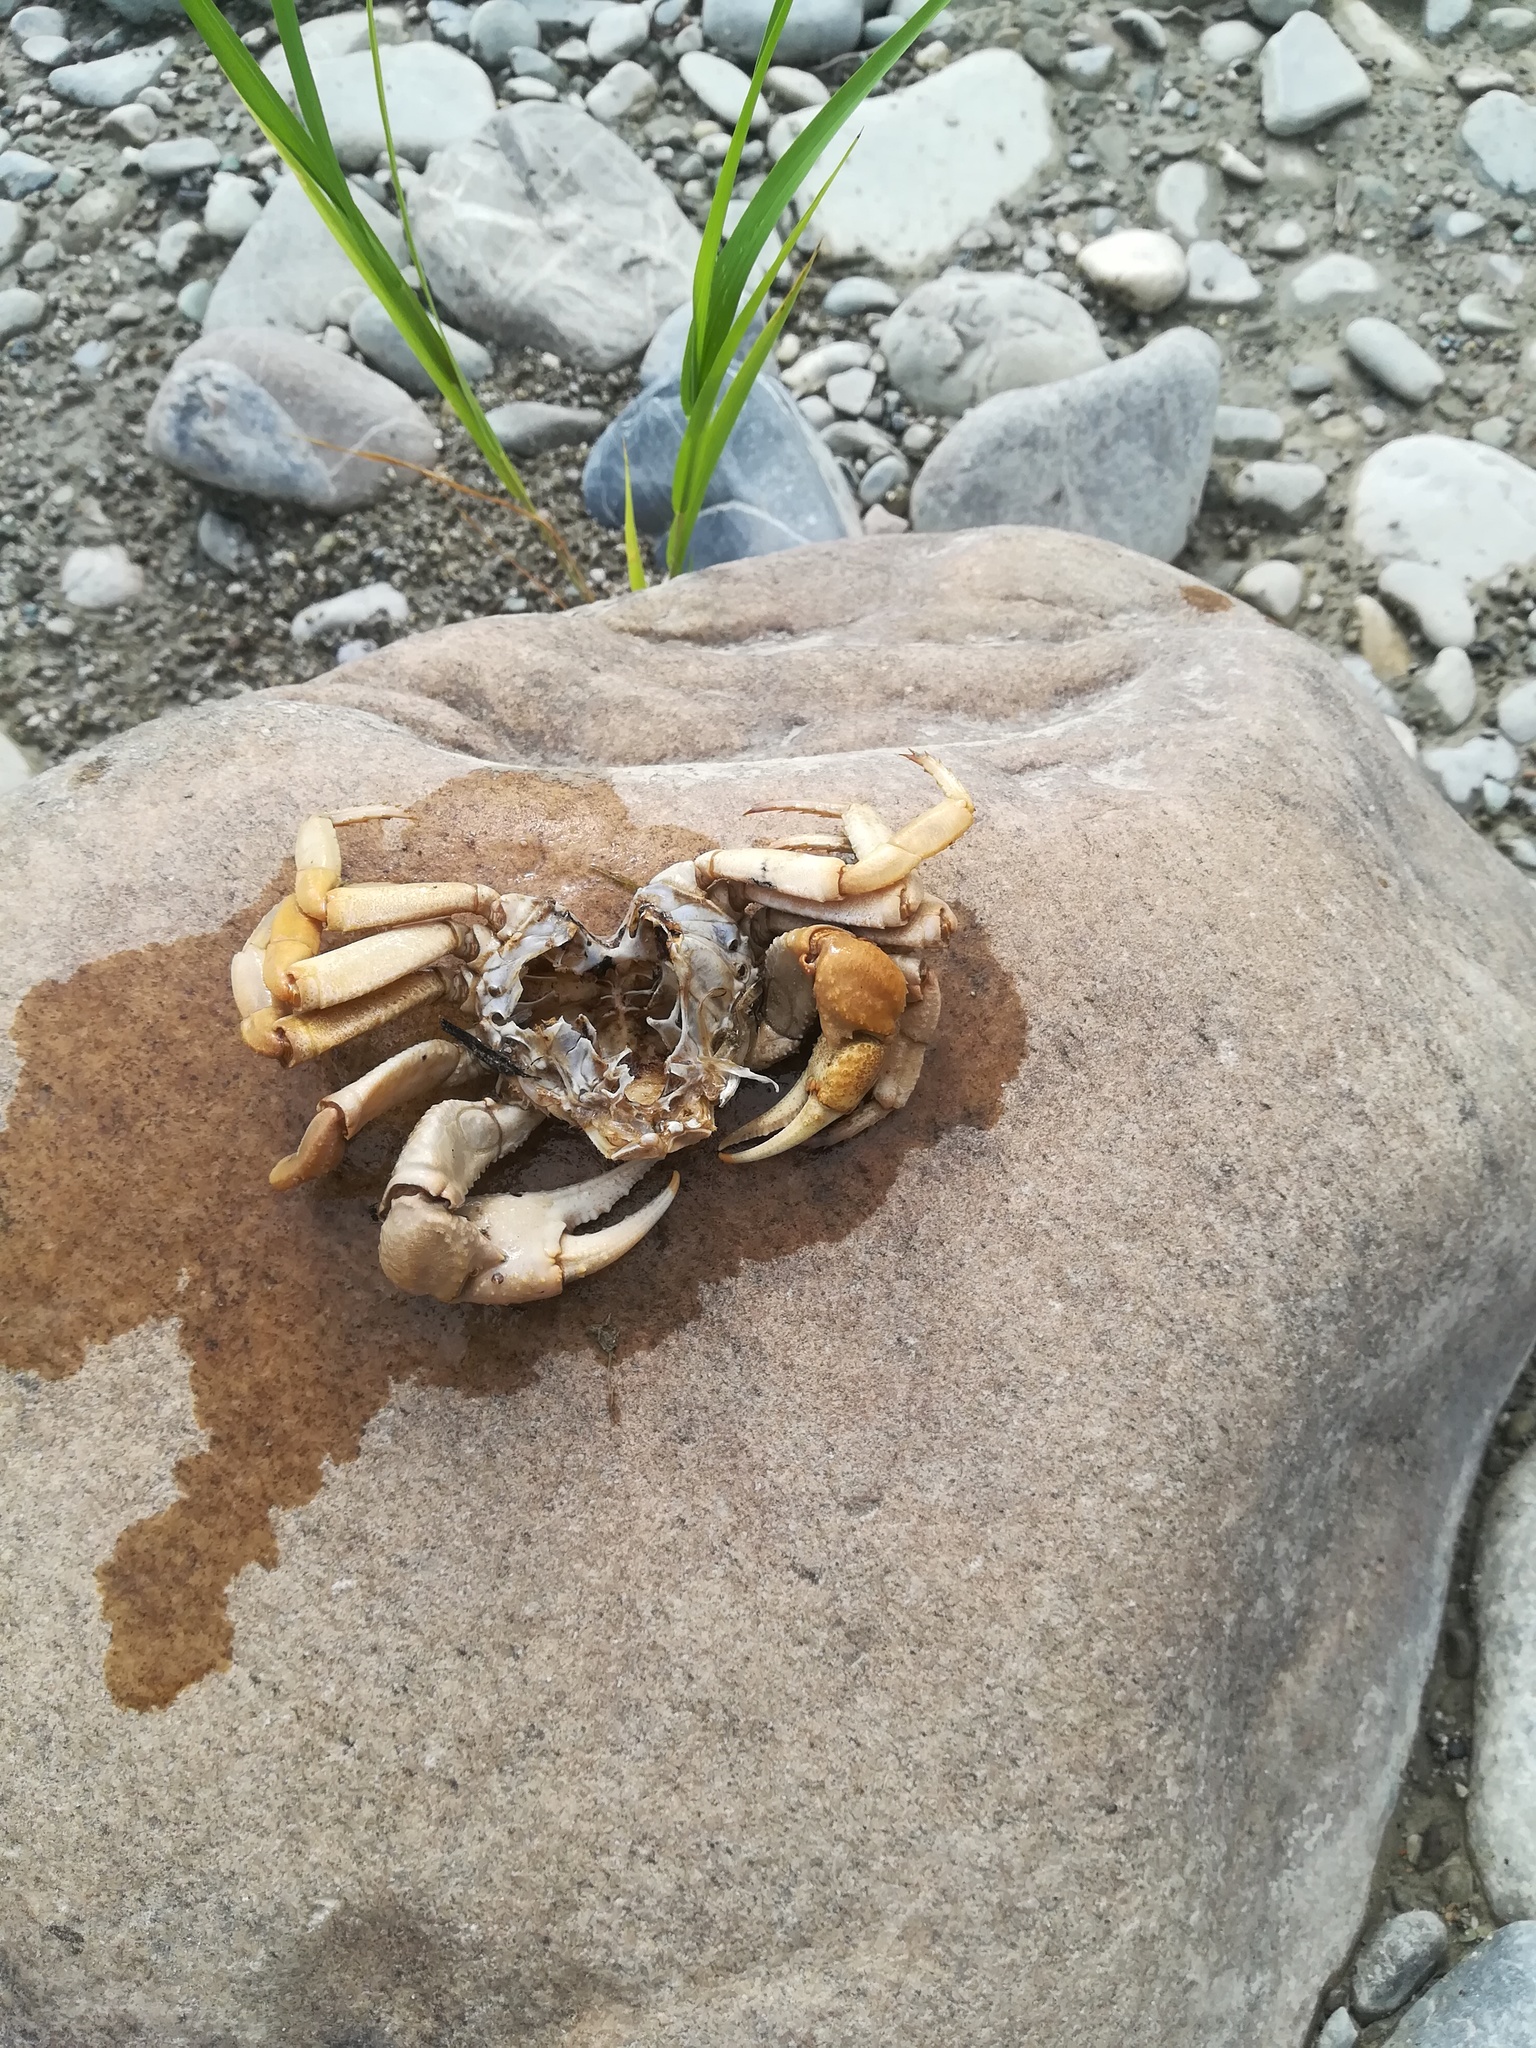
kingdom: Animalia
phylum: Arthropoda
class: Malacostraca
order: Decapoda
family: Potamidae
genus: Potamon
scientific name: Potamon fluviatile
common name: Italian freshwater crab
